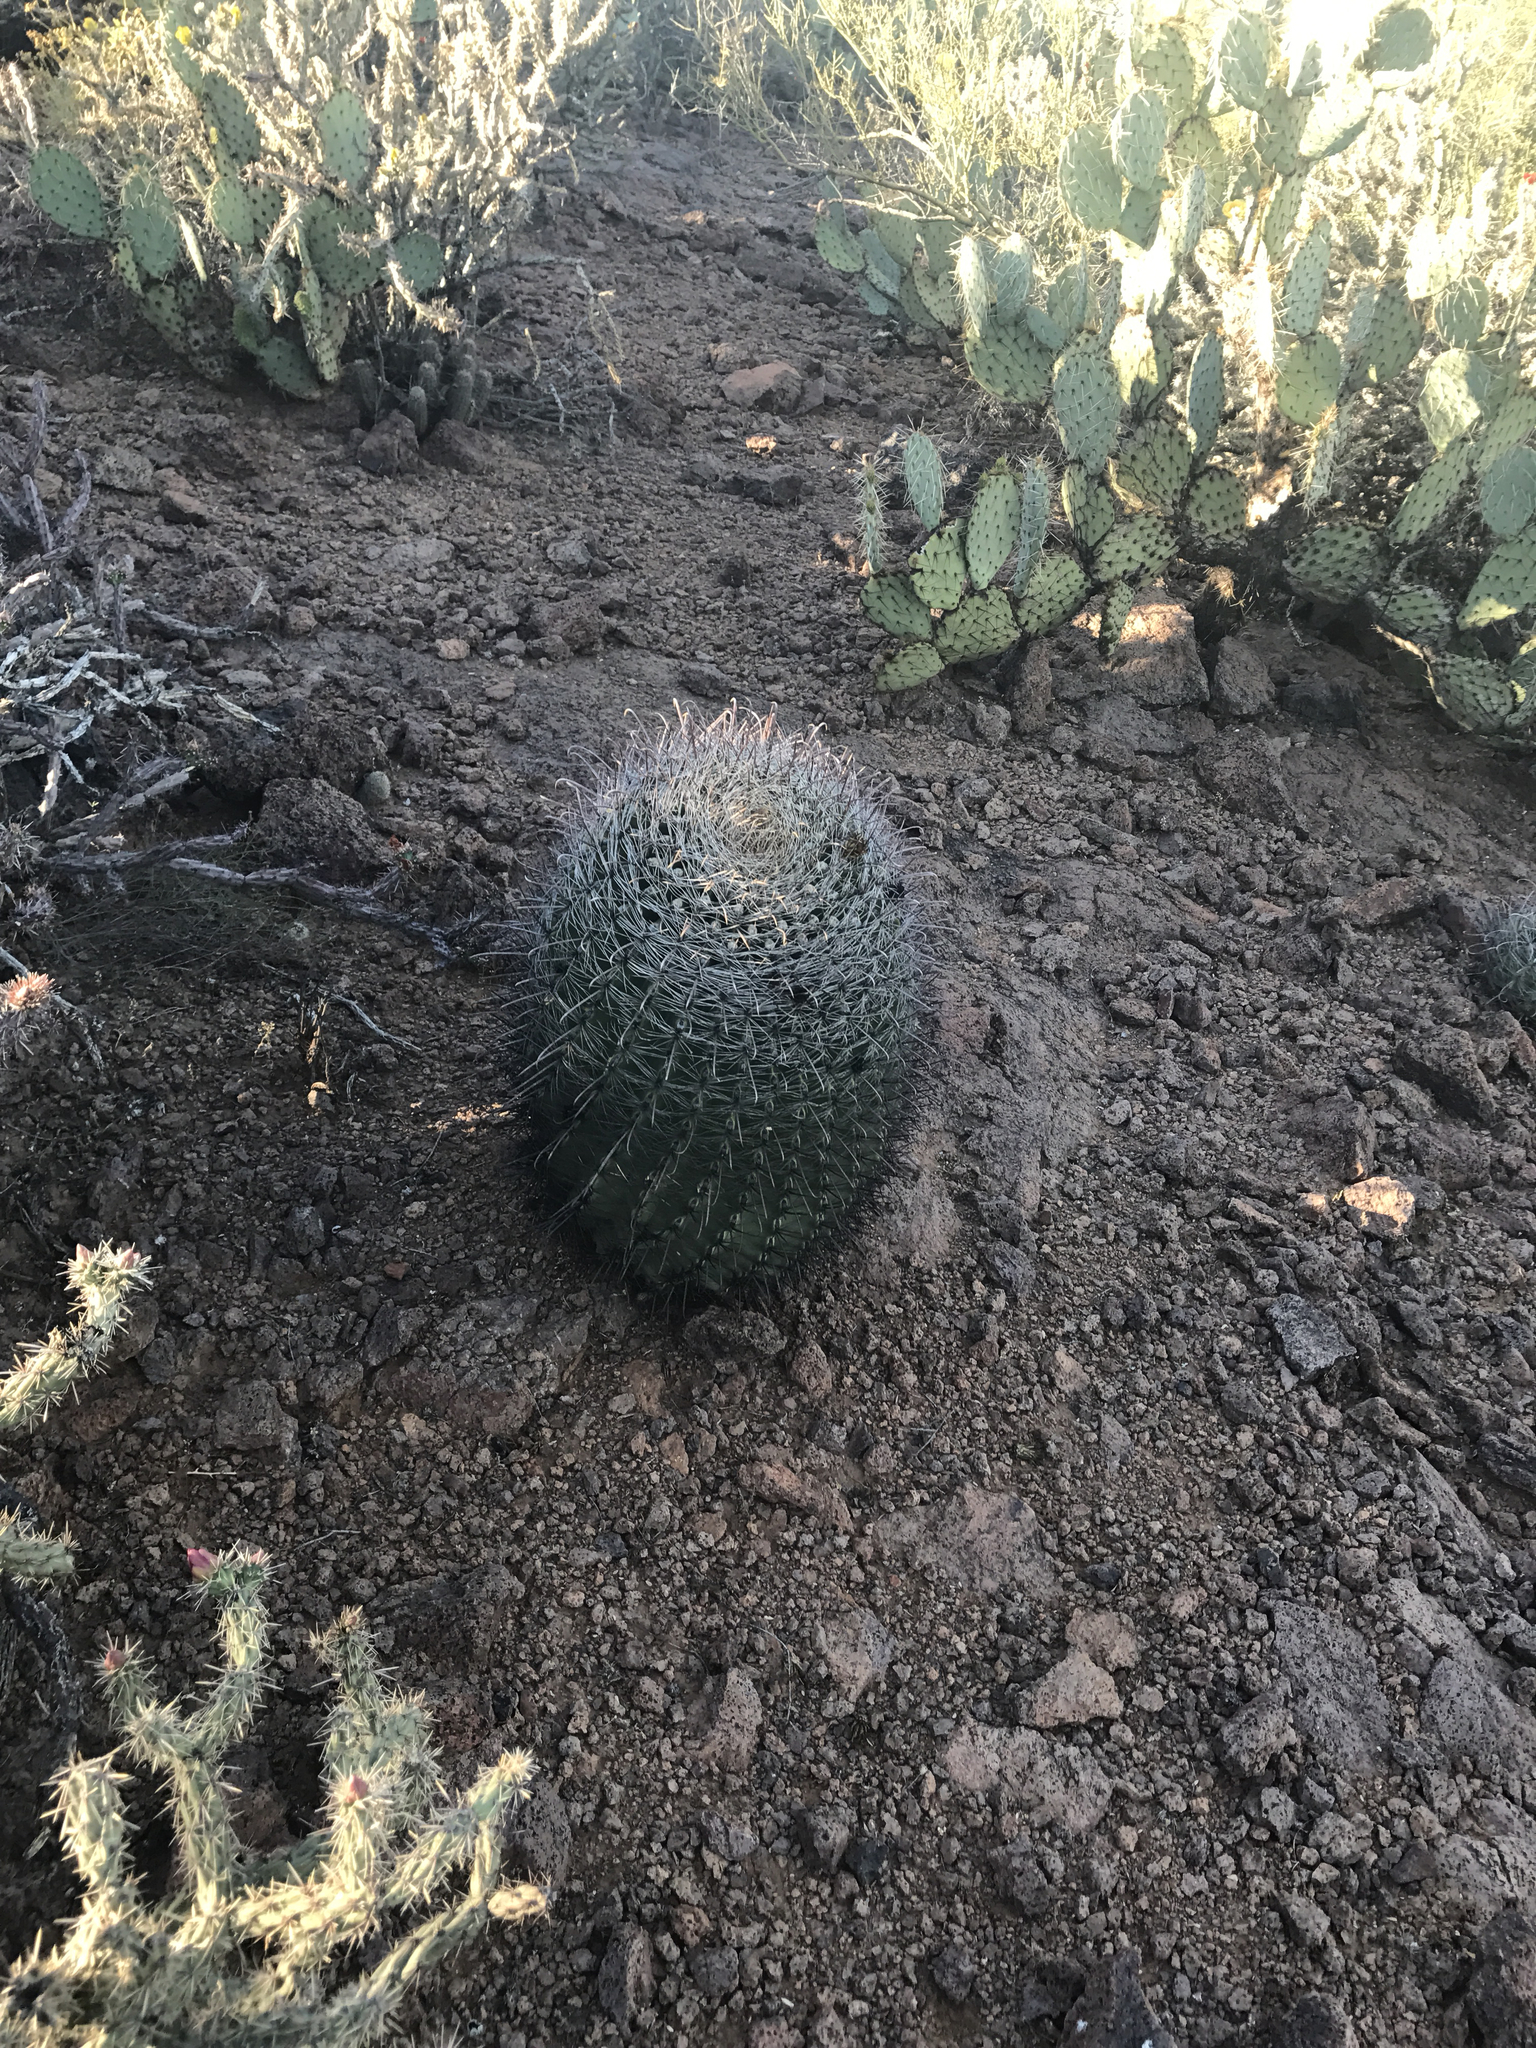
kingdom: Plantae
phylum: Tracheophyta
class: Magnoliopsida
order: Caryophyllales
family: Cactaceae
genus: Ferocactus
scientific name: Ferocactus wislizeni
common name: Candy barrel cactus
